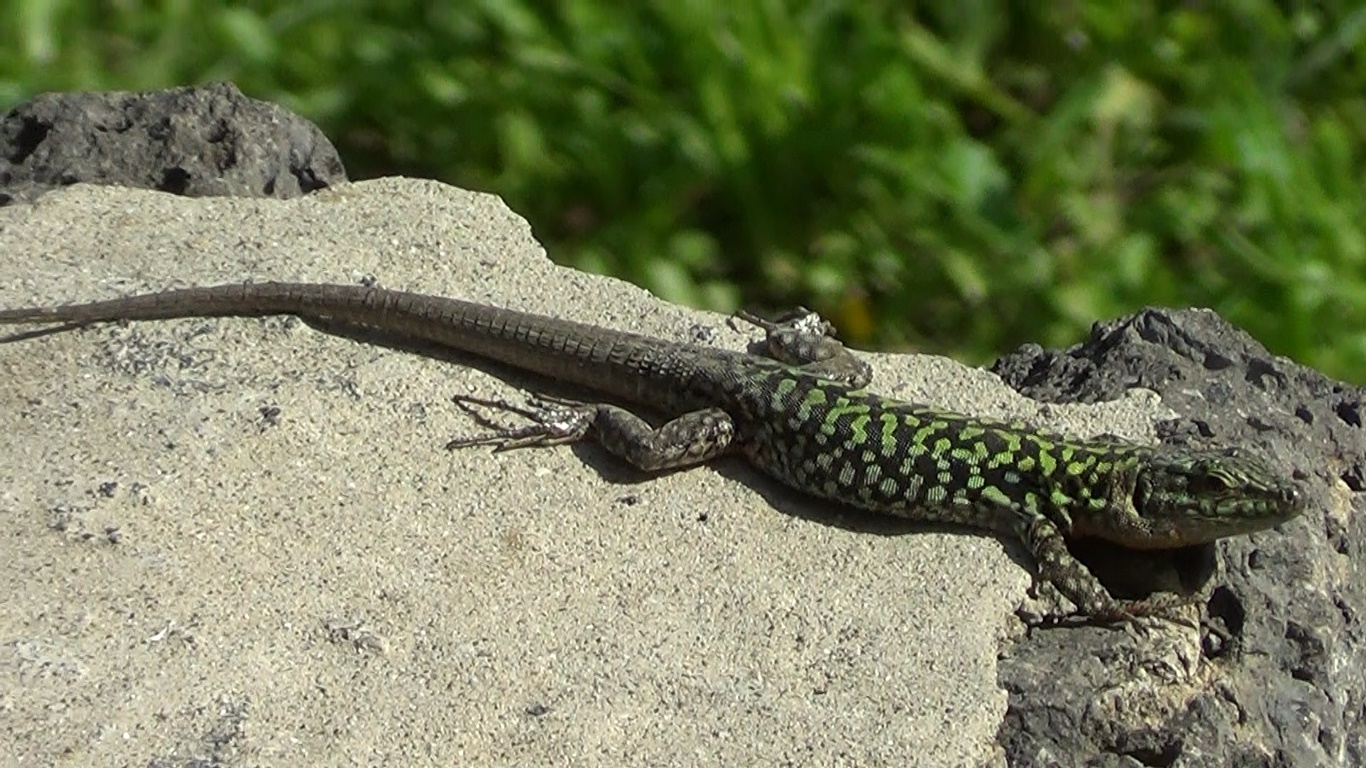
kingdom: Animalia
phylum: Chordata
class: Squamata
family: Lacertidae
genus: Podarcis
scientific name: Podarcis siculus
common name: Italian wall lizard
